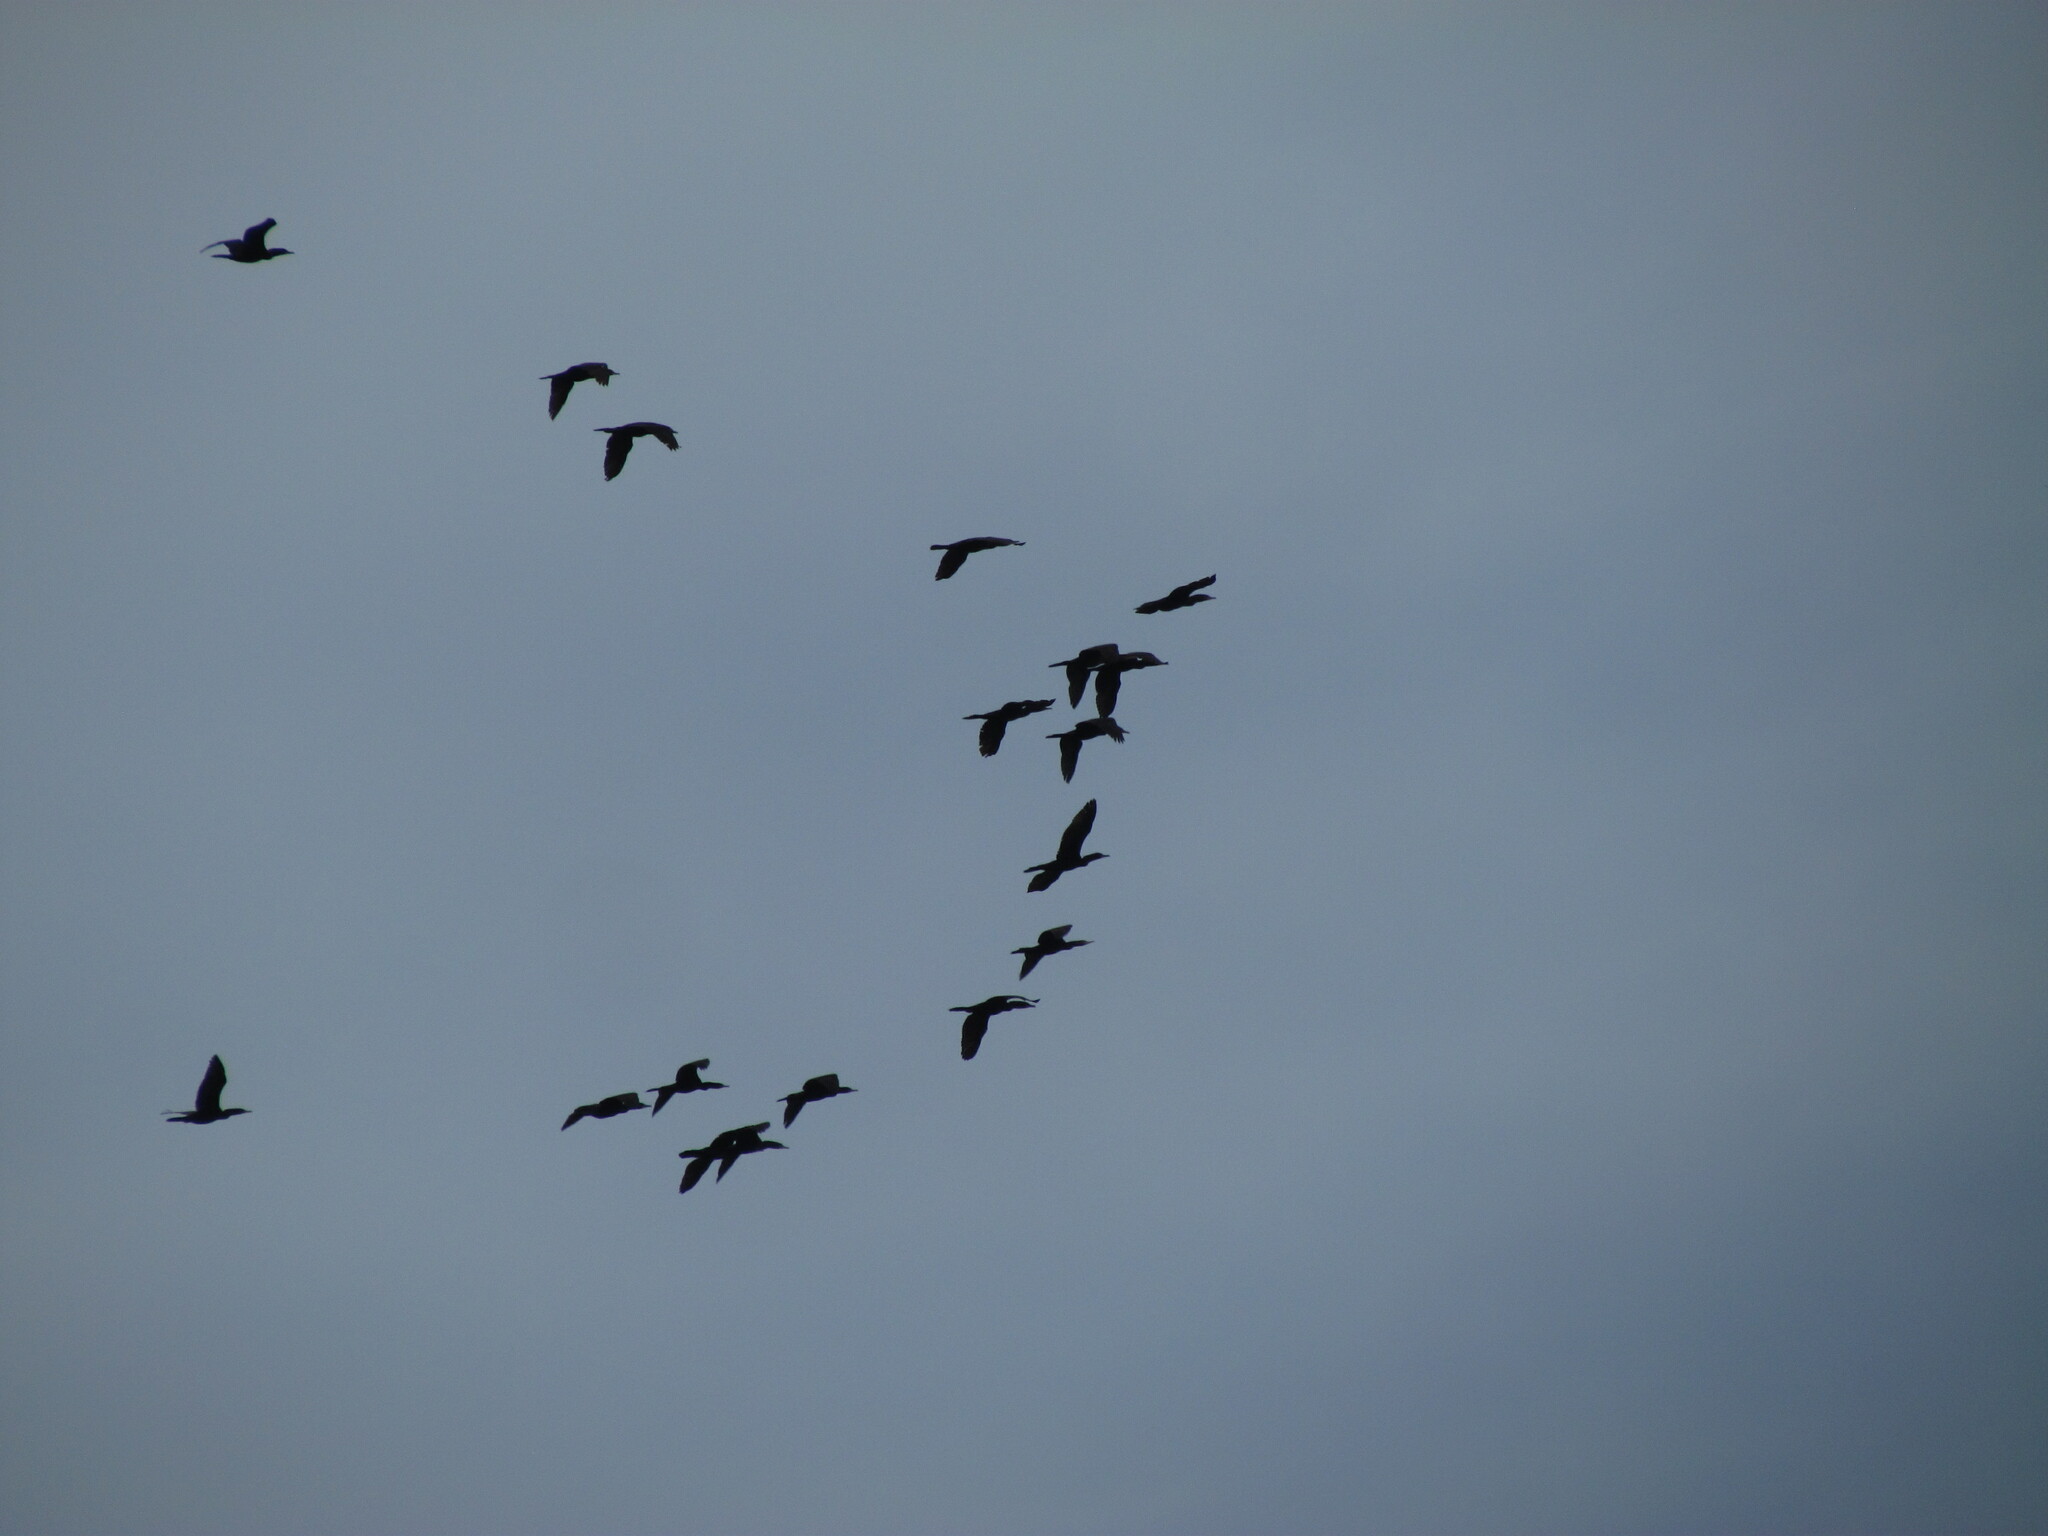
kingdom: Animalia
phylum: Chordata
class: Aves
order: Suliformes
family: Phalacrocoracidae
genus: Phalacrocorax
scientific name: Phalacrocorax brasilianus
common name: Neotropic cormorant
